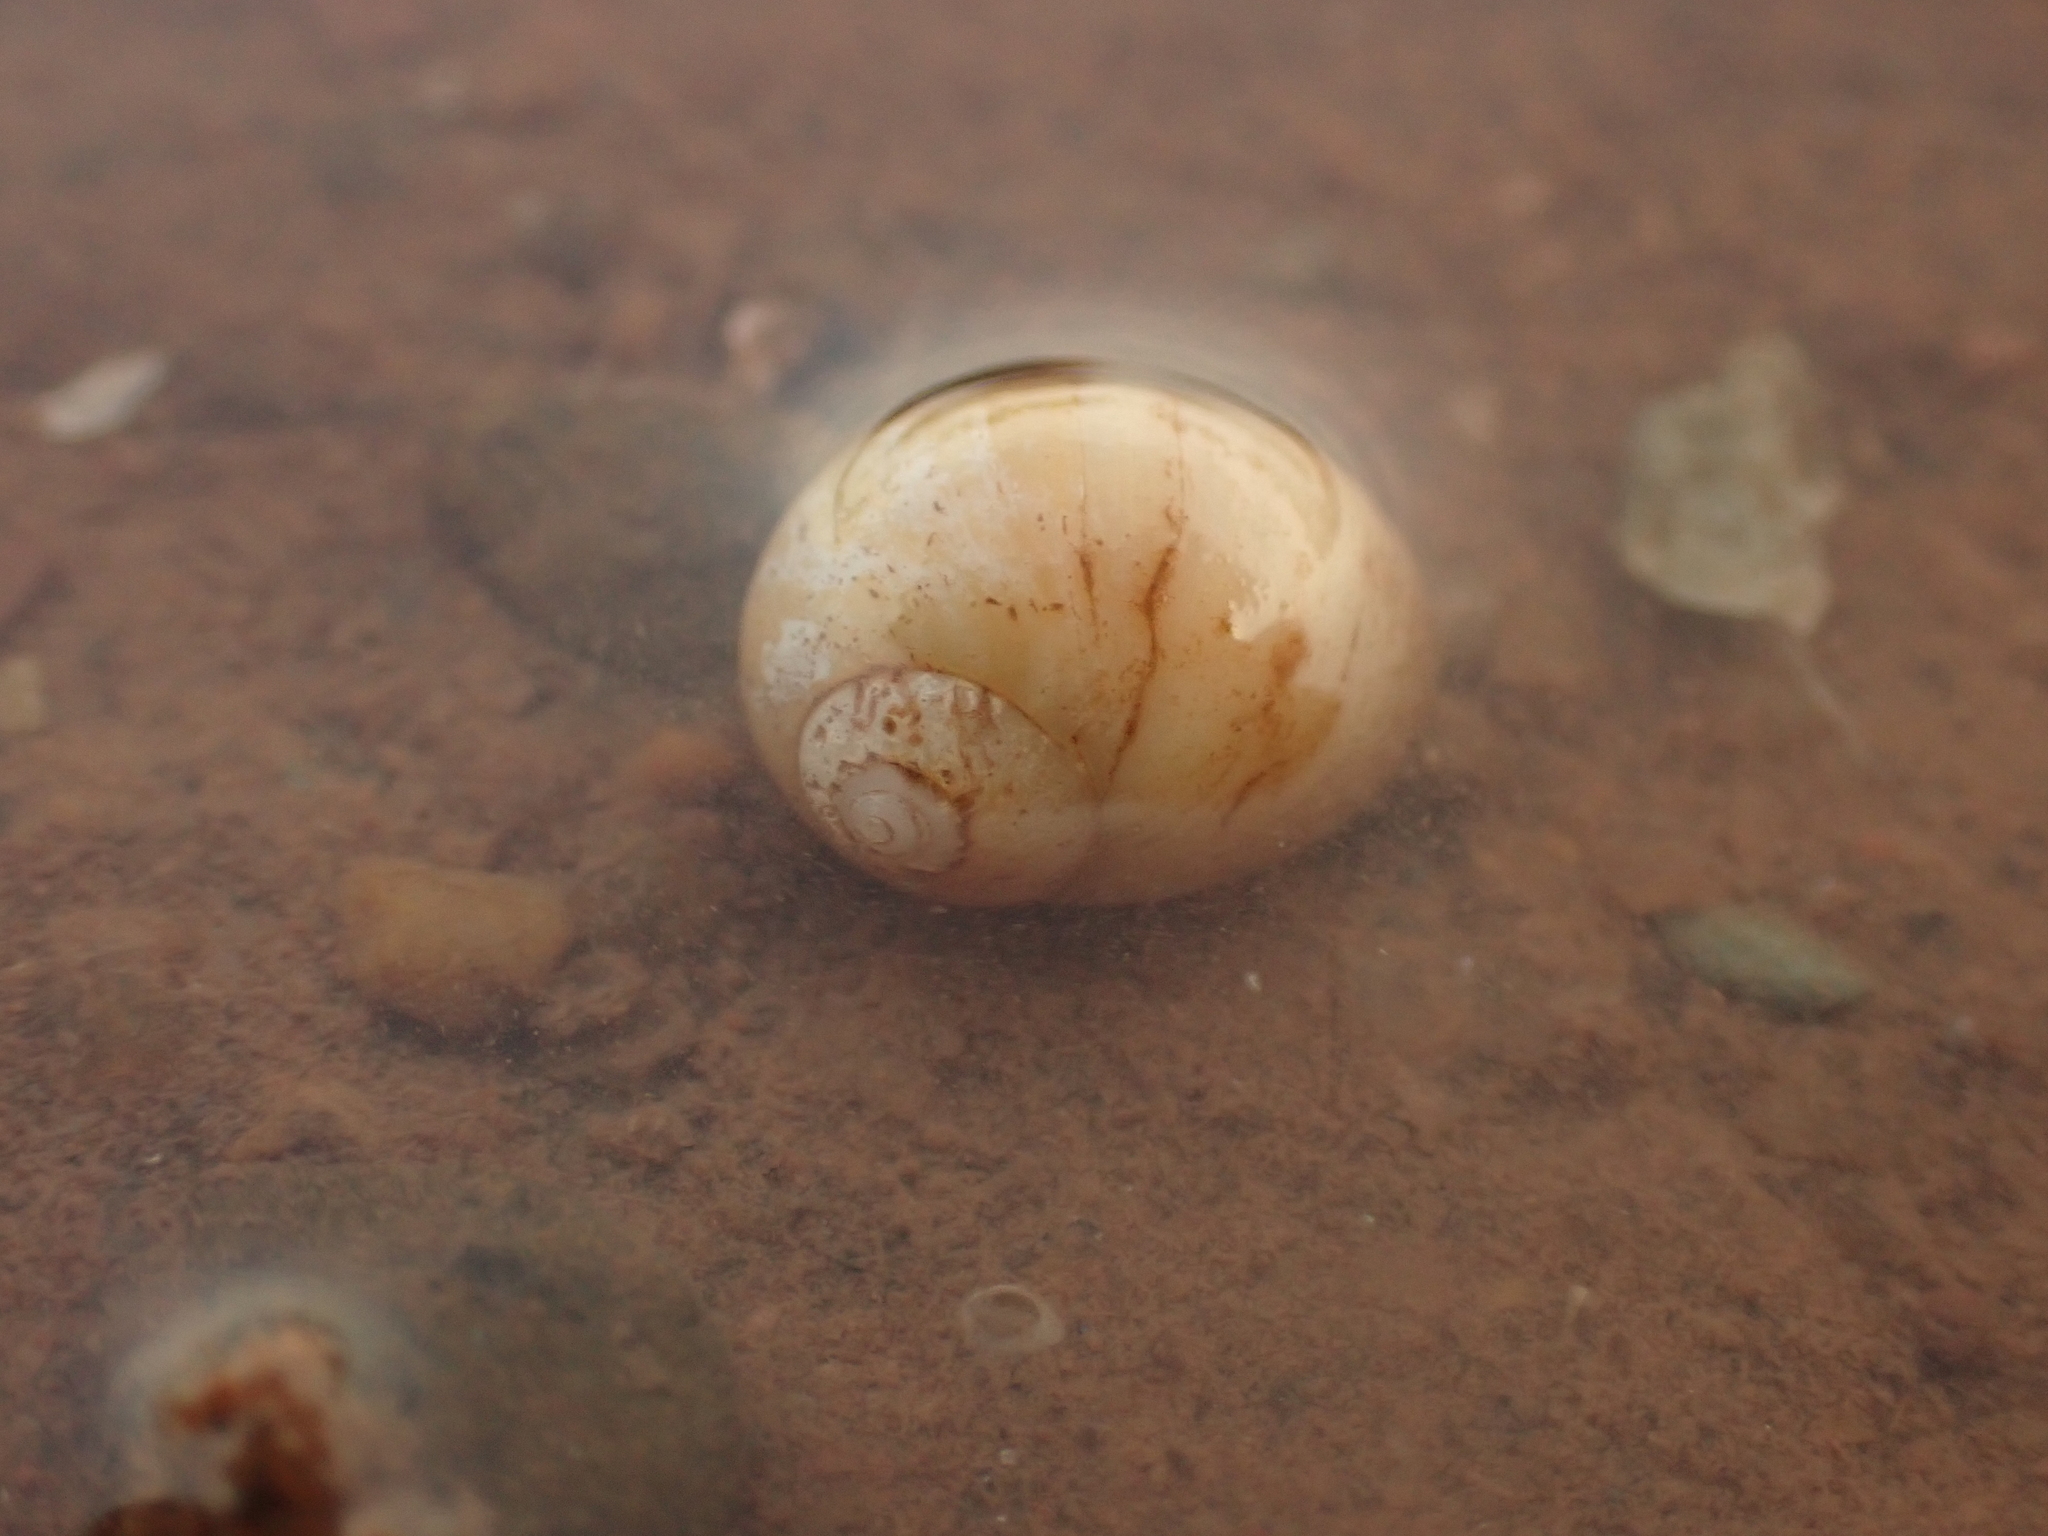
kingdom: Animalia
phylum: Mollusca
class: Gastropoda
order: Littorinimorpha
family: Naticidae
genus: Euspira
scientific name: Euspira triseriata
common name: Spotted moonsnail
